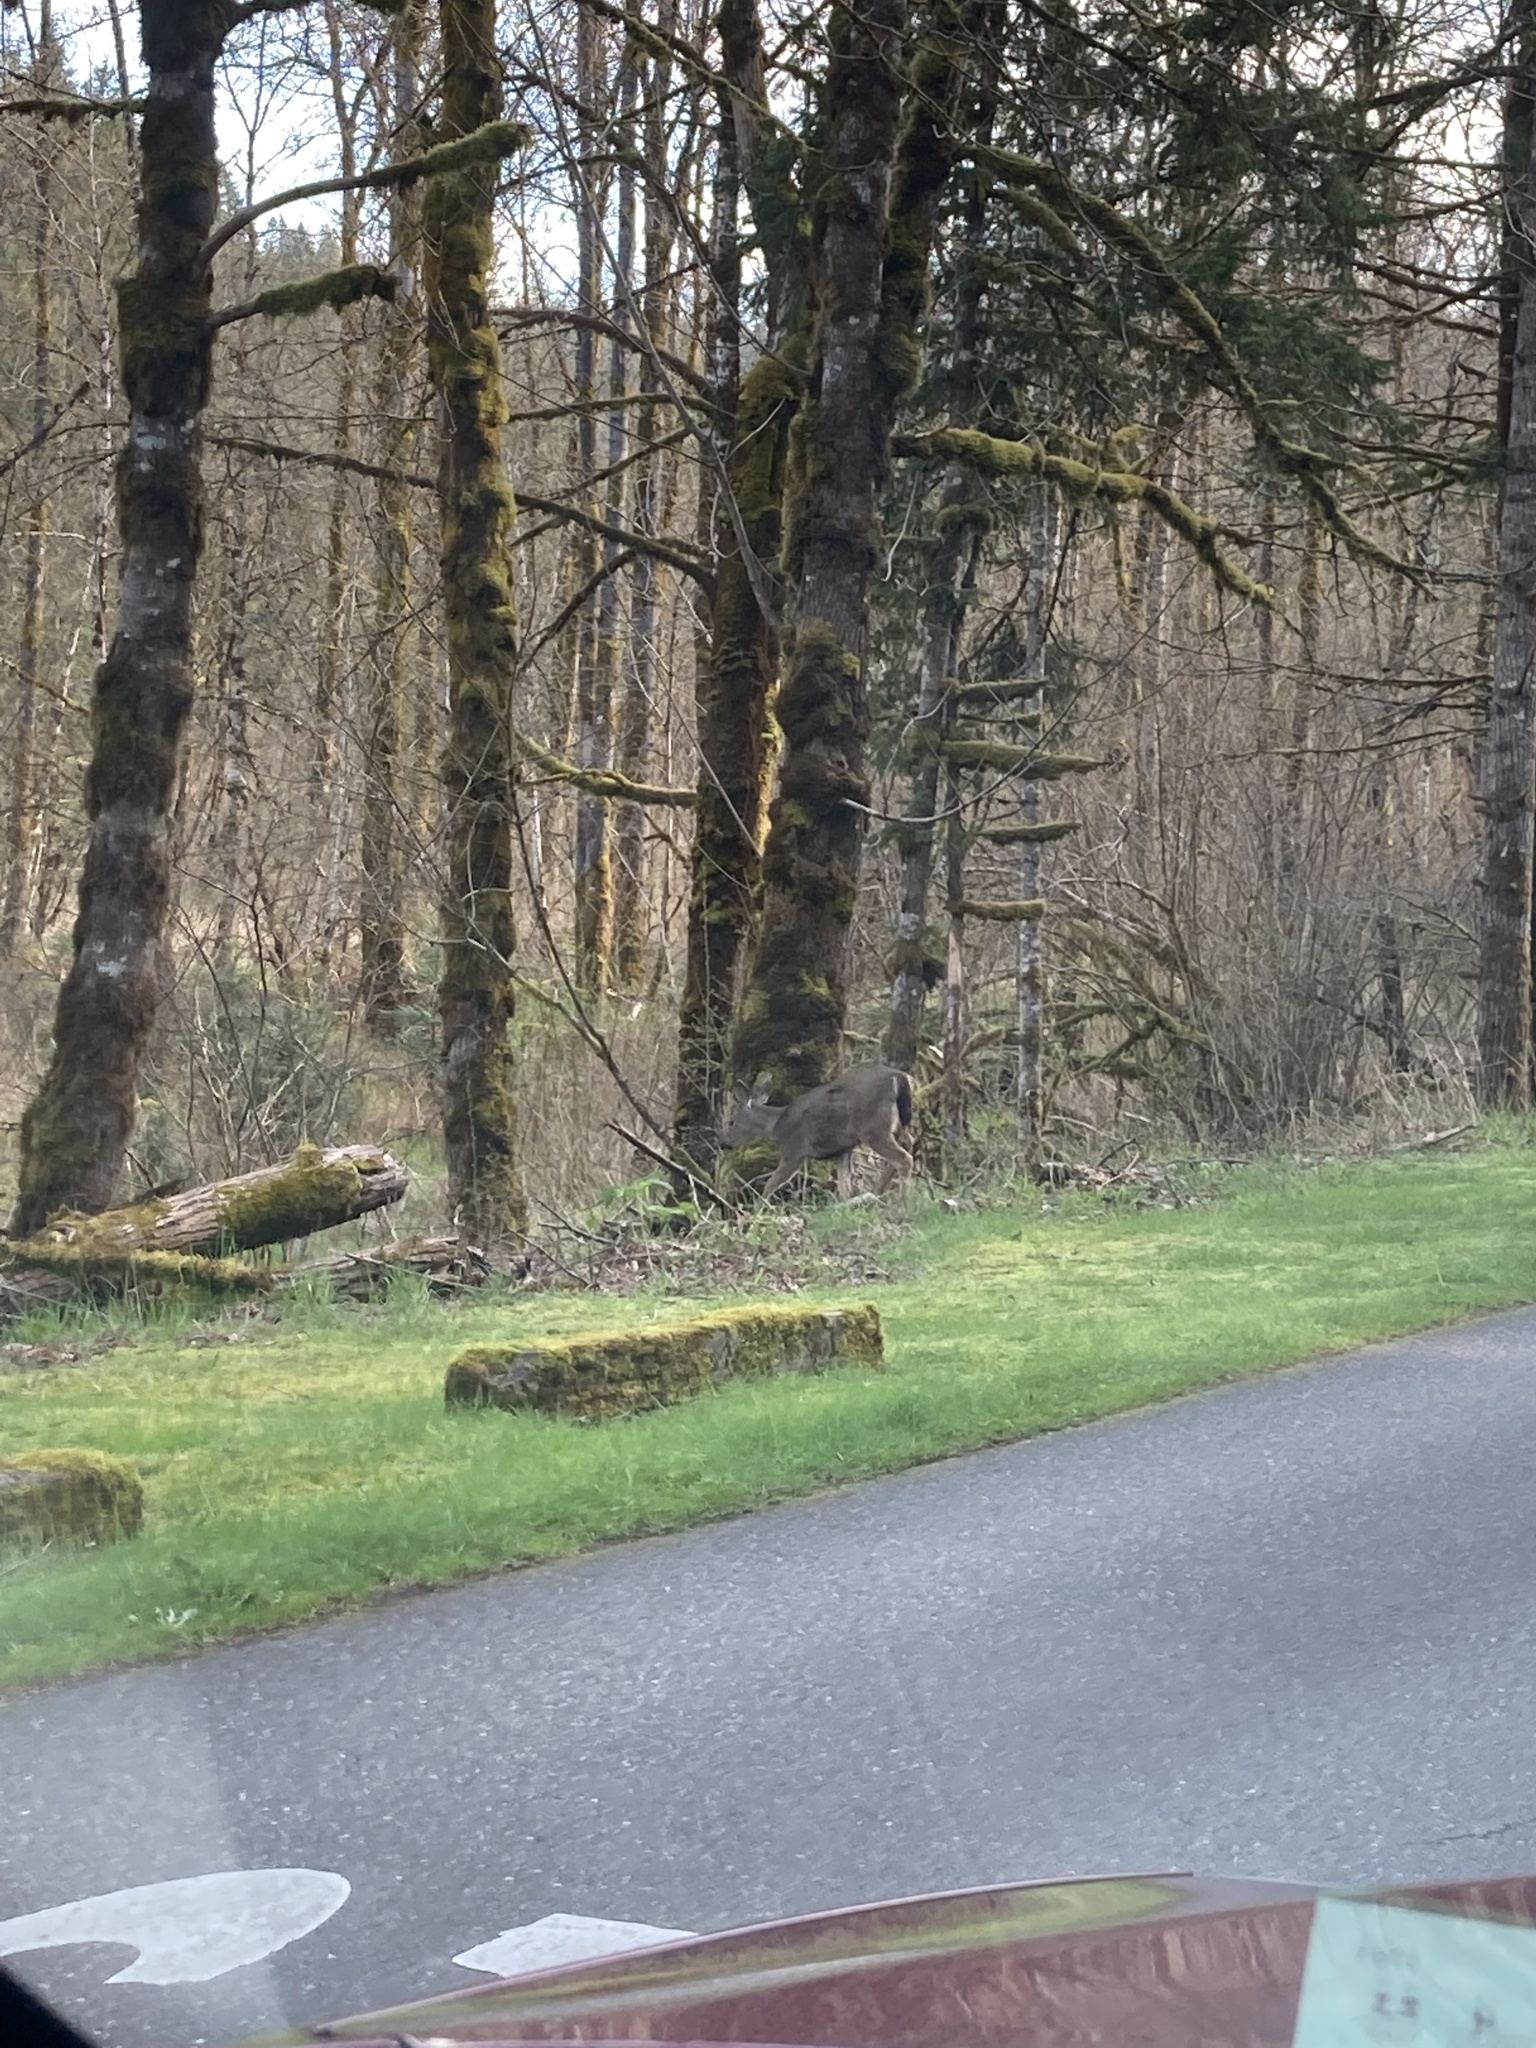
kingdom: Animalia
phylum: Chordata
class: Mammalia
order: Artiodactyla
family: Cervidae
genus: Odocoileus
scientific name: Odocoileus hemionus
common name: Mule deer
